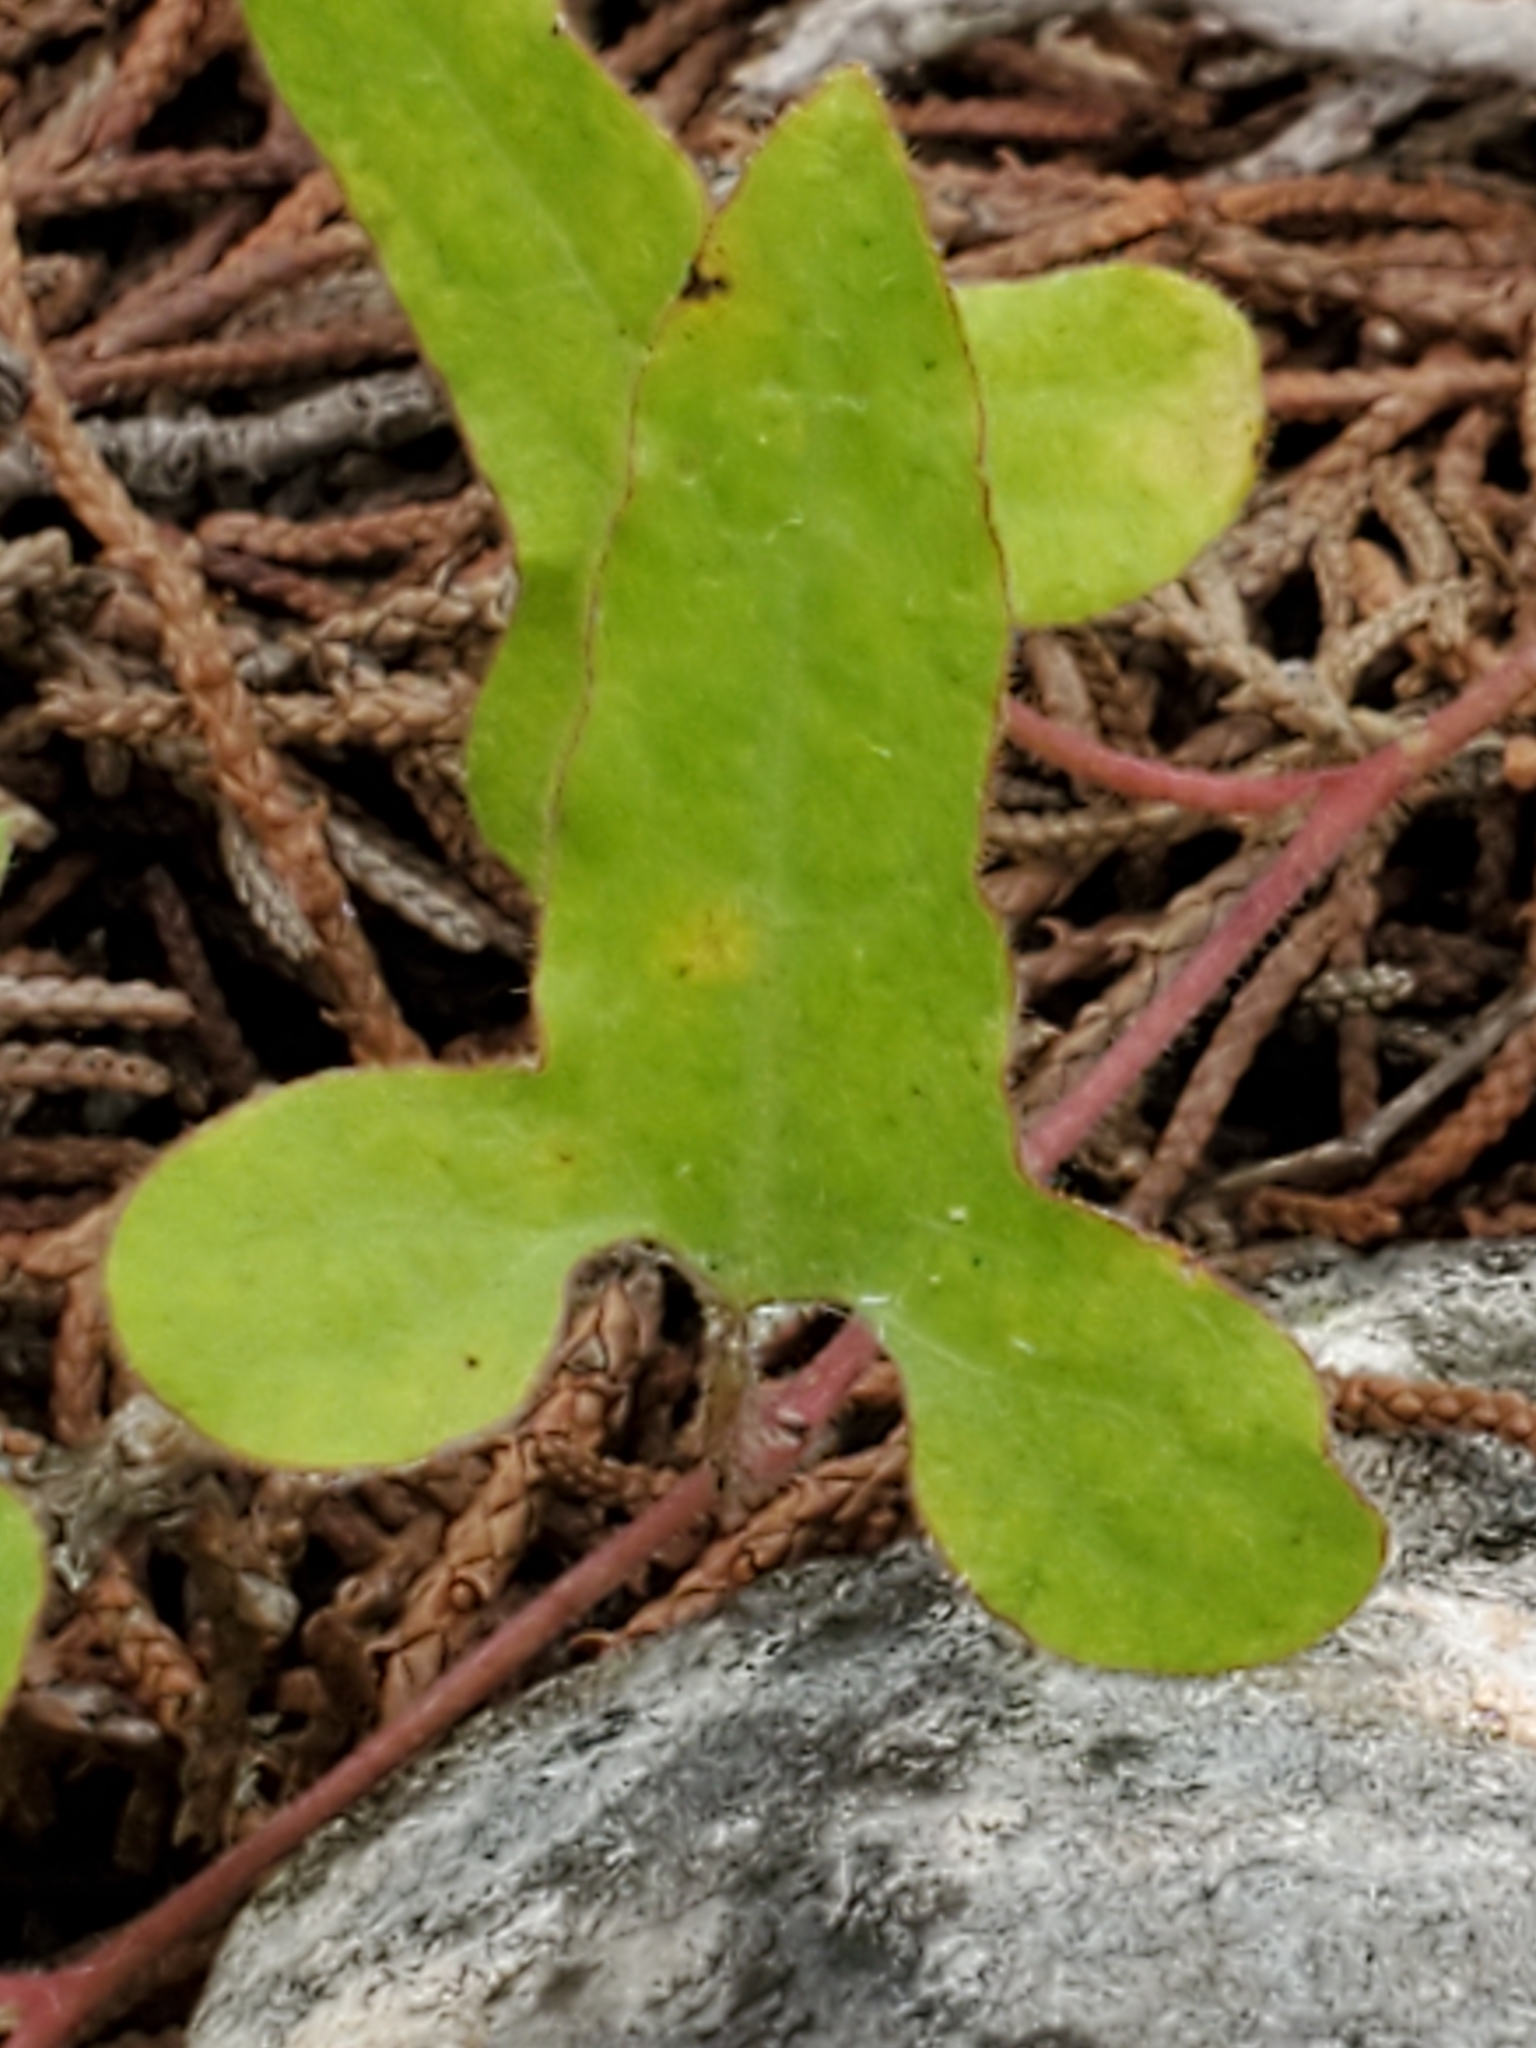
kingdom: Plantae
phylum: Tracheophyta
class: Magnoliopsida
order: Piperales
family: Aristolochiaceae
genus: Aristolochia
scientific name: Aristolochia coryi
